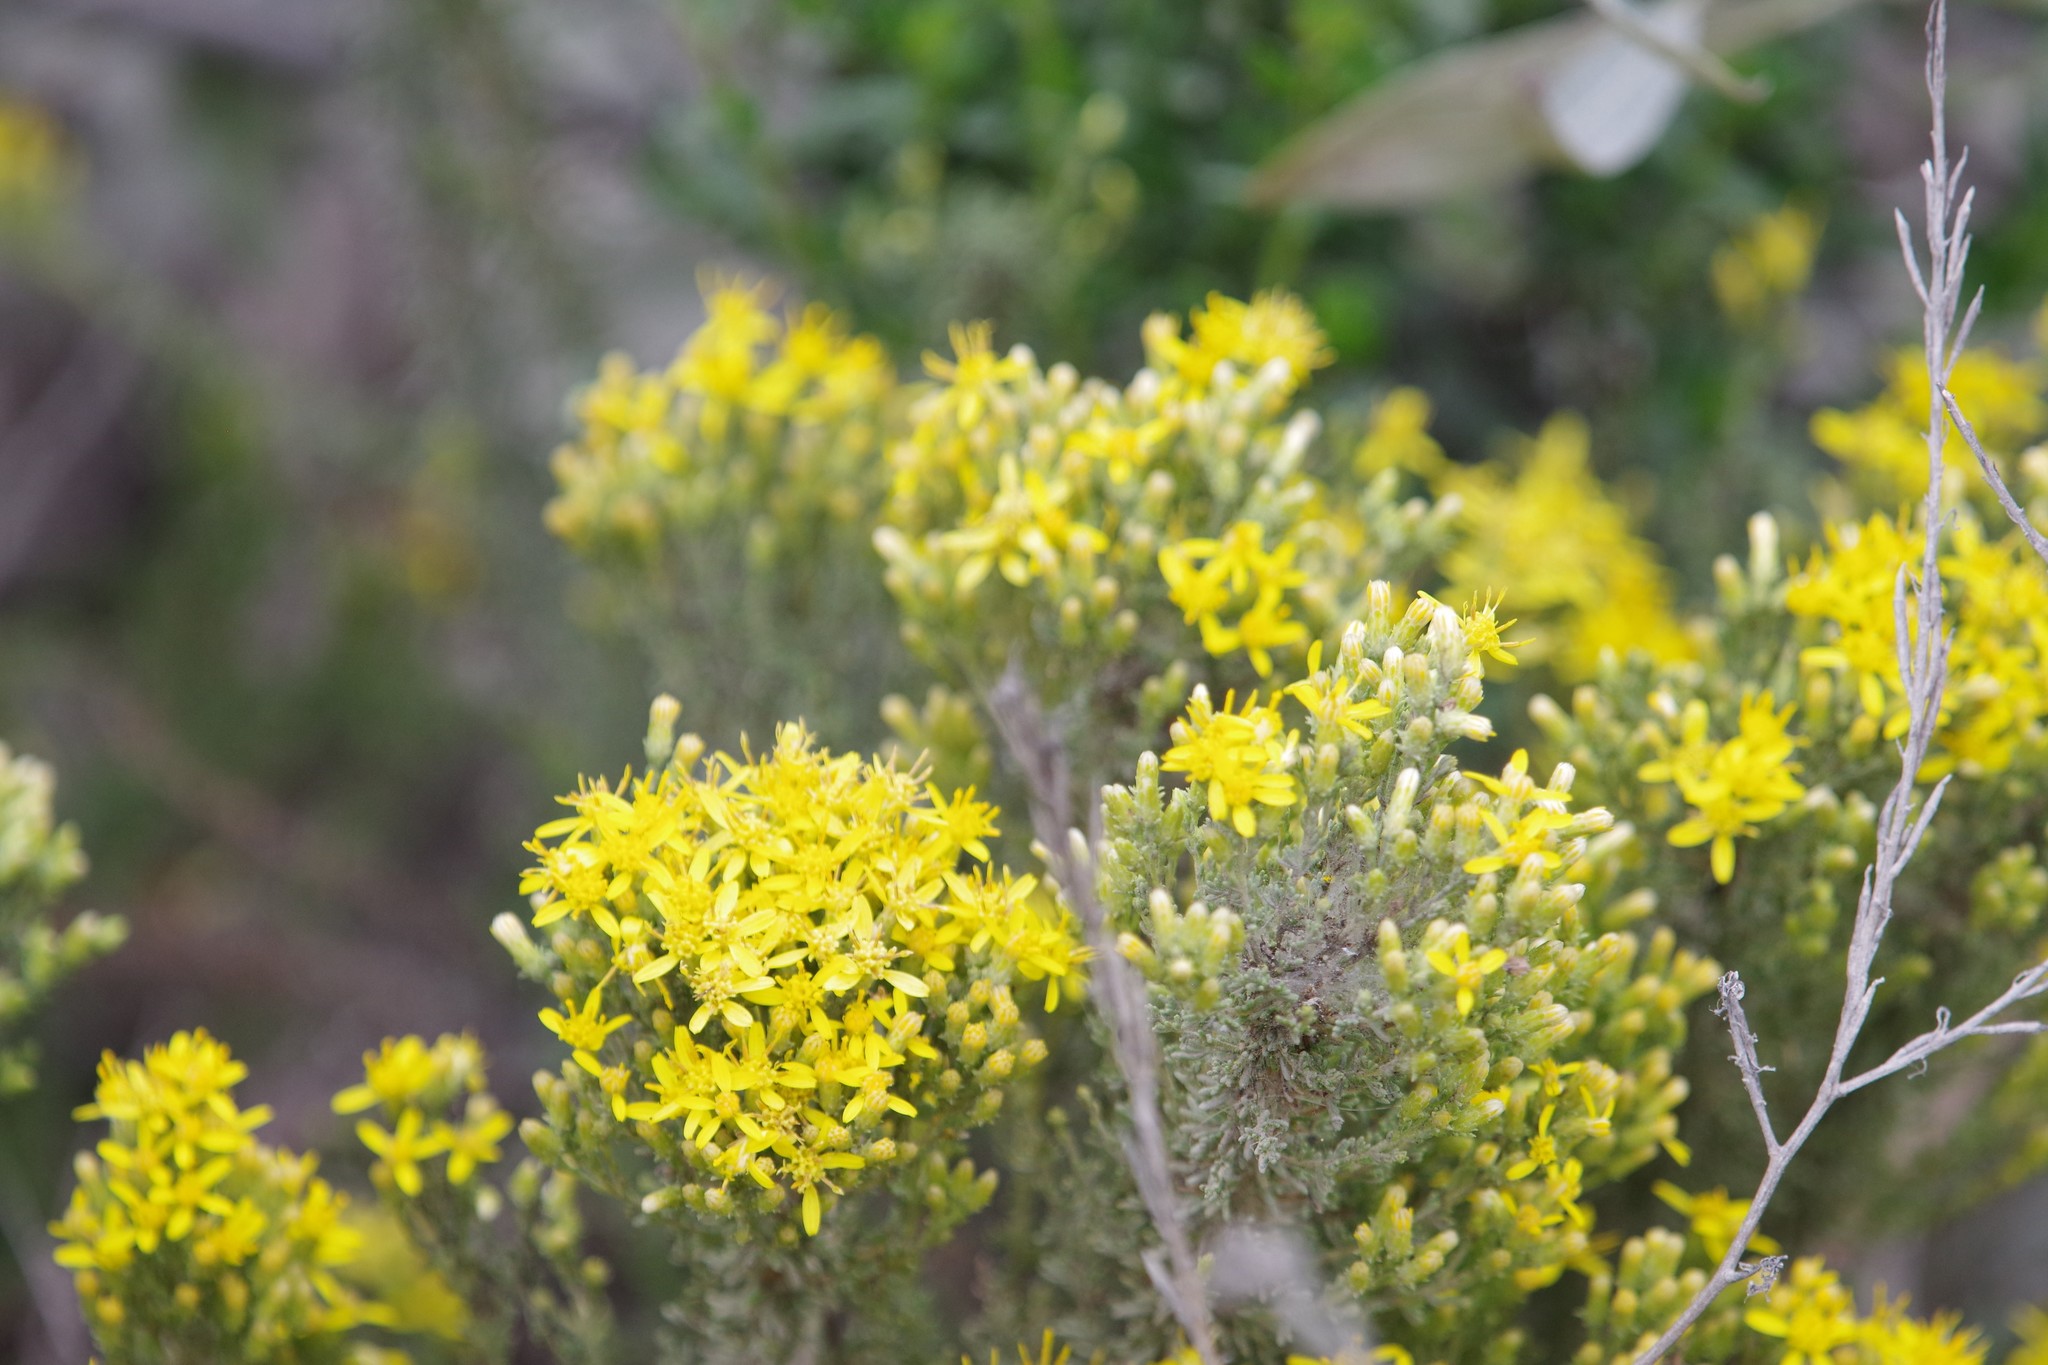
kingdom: Plantae
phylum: Tracheophyta
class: Magnoliopsida
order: Asterales
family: Asteraceae
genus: Ericameria
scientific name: Ericameria ericoides
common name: California goldenbush
